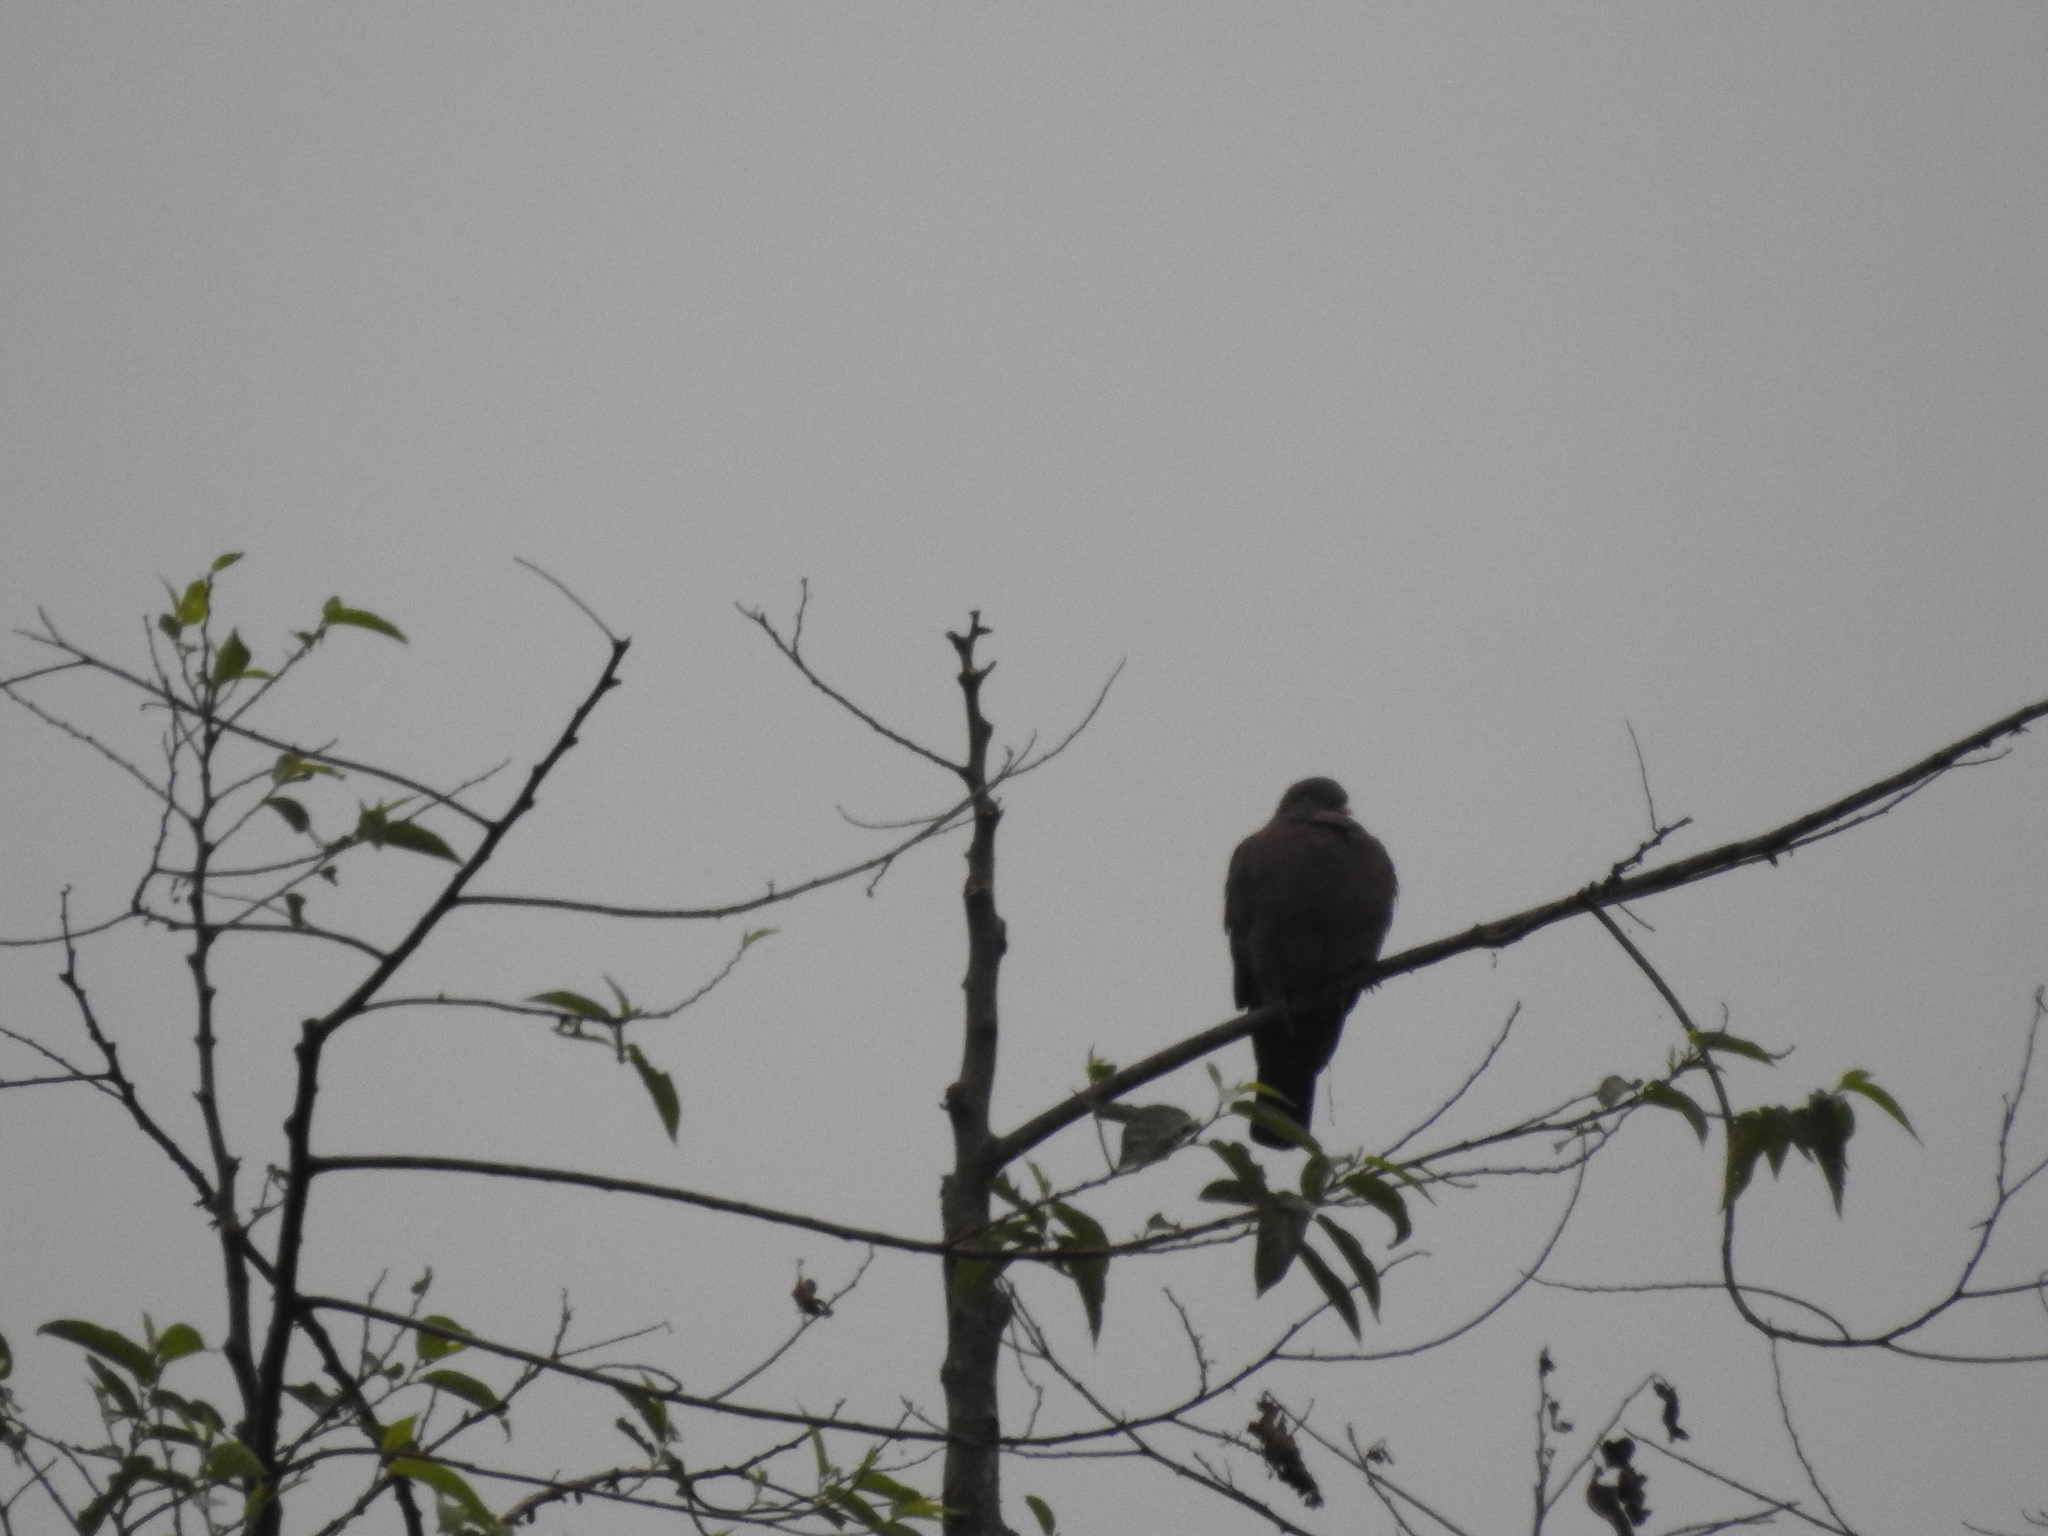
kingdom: Animalia
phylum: Chordata
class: Aves
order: Columbiformes
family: Columbidae
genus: Patagioenas
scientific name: Patagioenas flavirostris
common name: Red-billed pigeon
